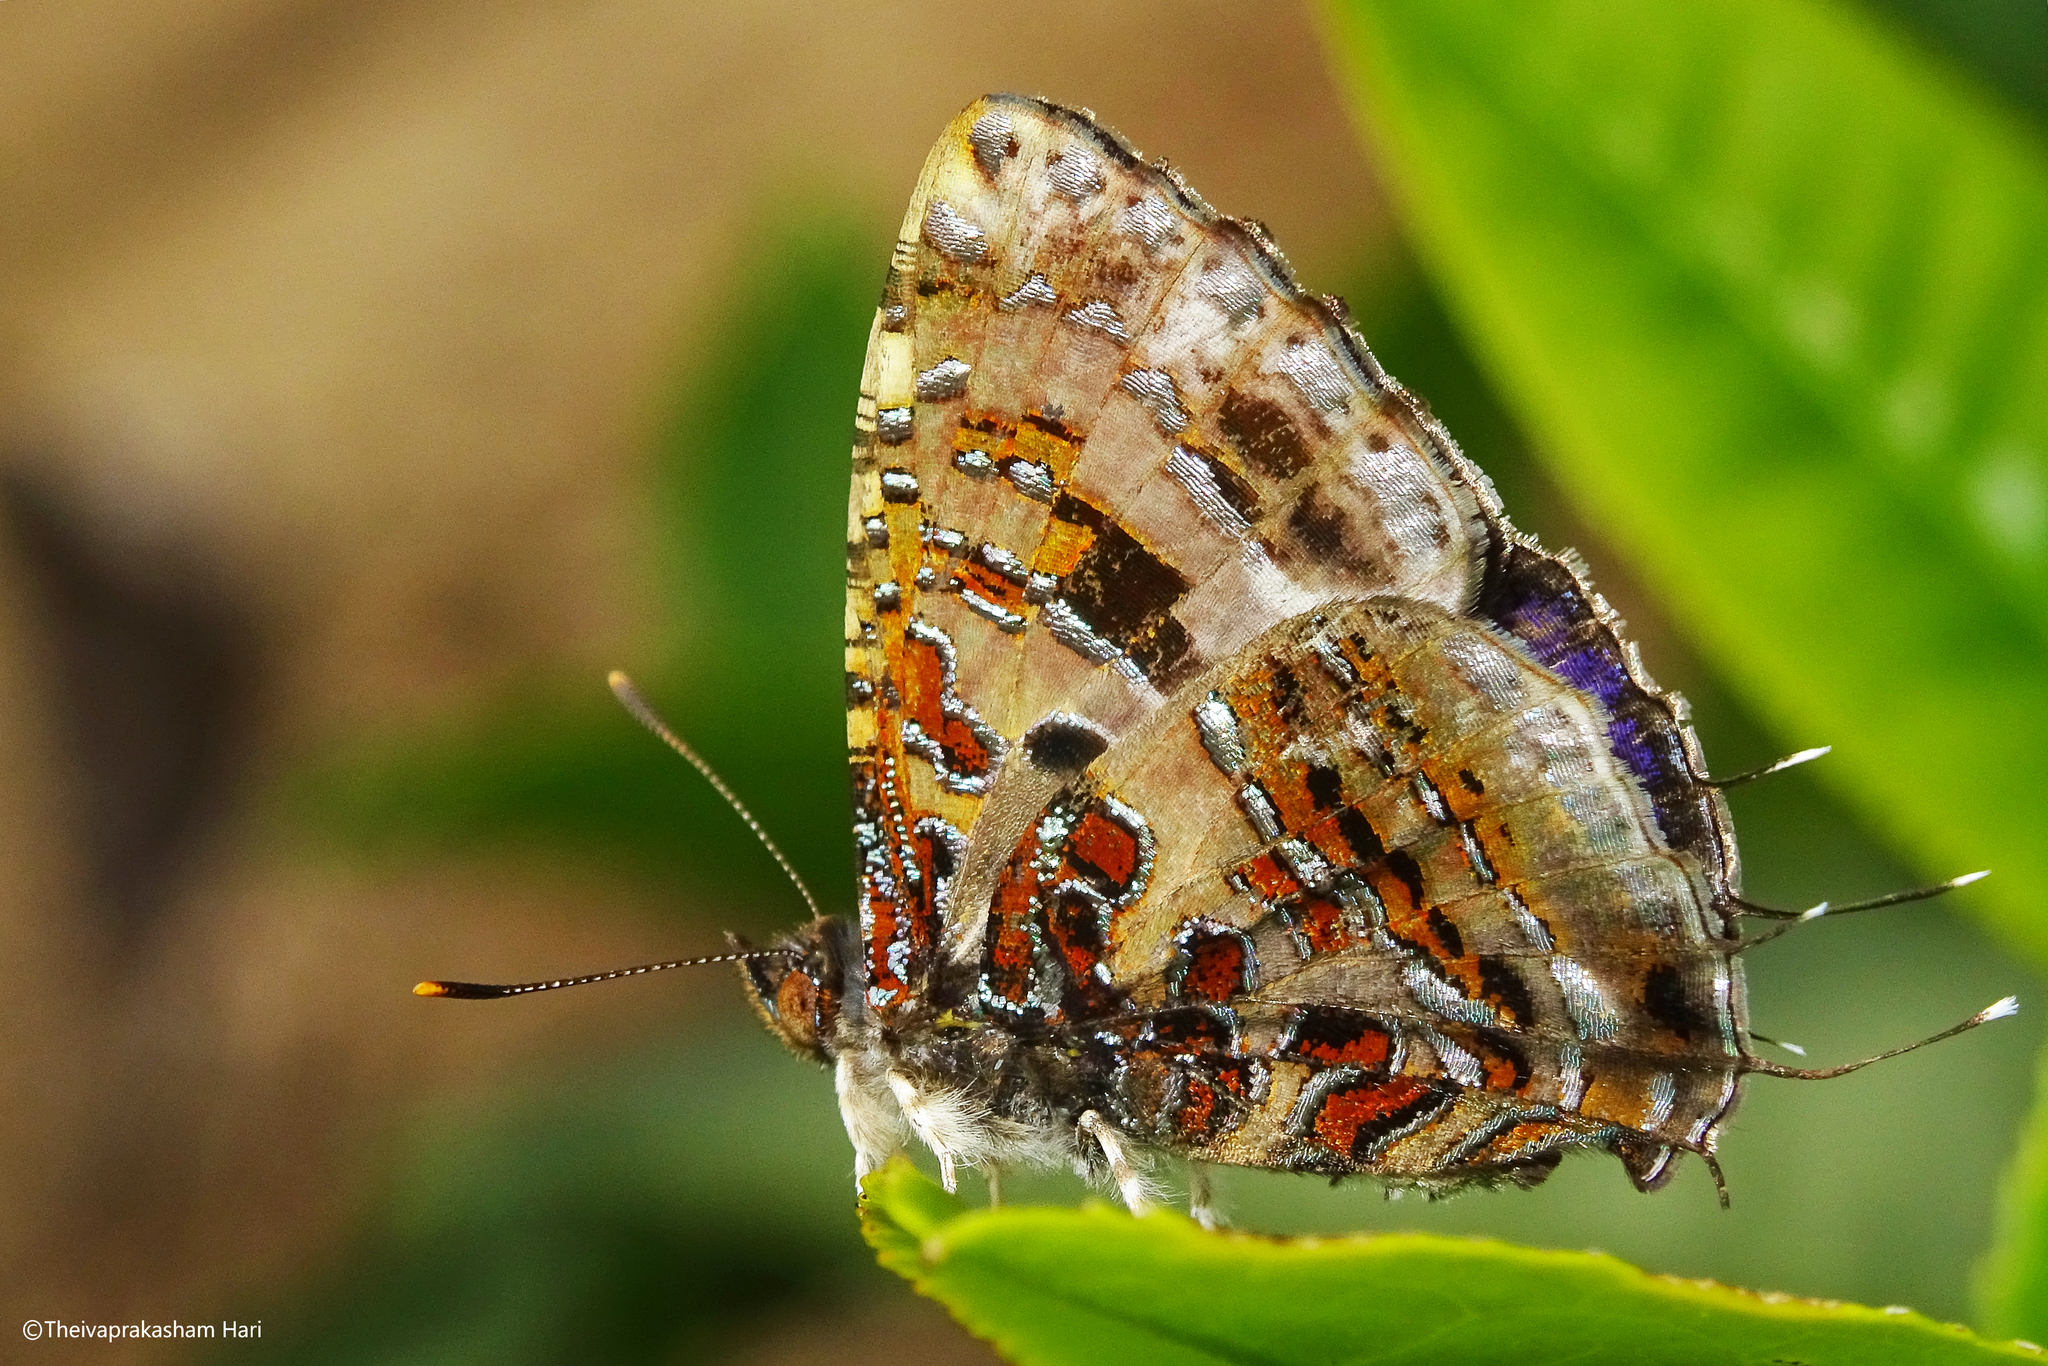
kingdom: Animalia
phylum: Arthropoda
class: Insecta
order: Lepidoptera
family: Lycaenidae
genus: Catapaecilma
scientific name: Catapaecilma major
